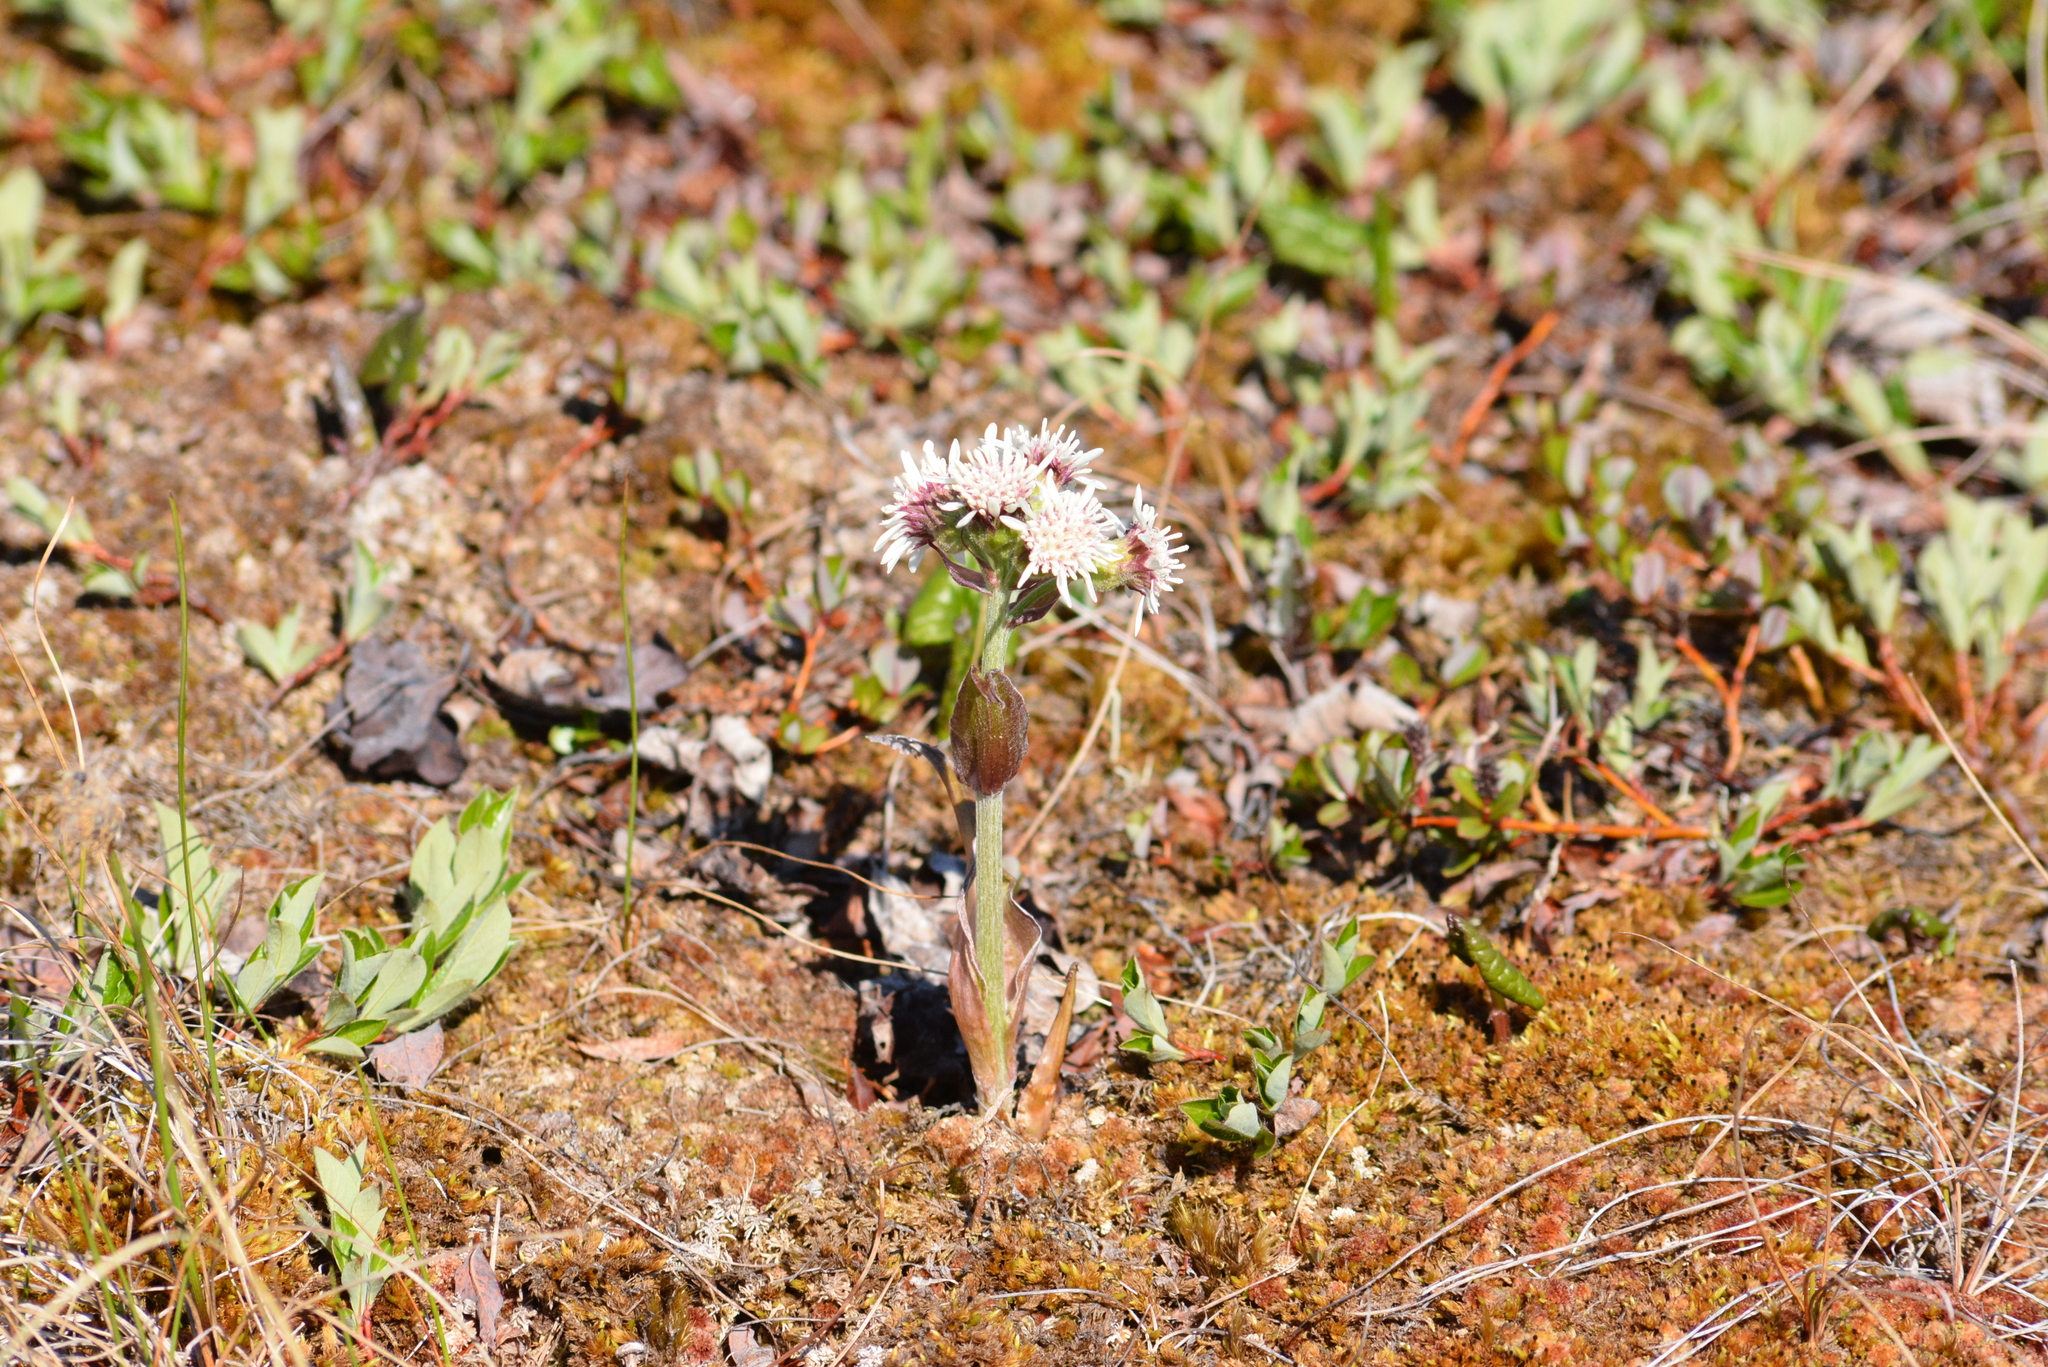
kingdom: Plantae
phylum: Tracheophyta
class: Magnoliopsida
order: Asterales
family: Asteraceae
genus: Petasites
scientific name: Petasites frigidus
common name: Arctic butterbur
